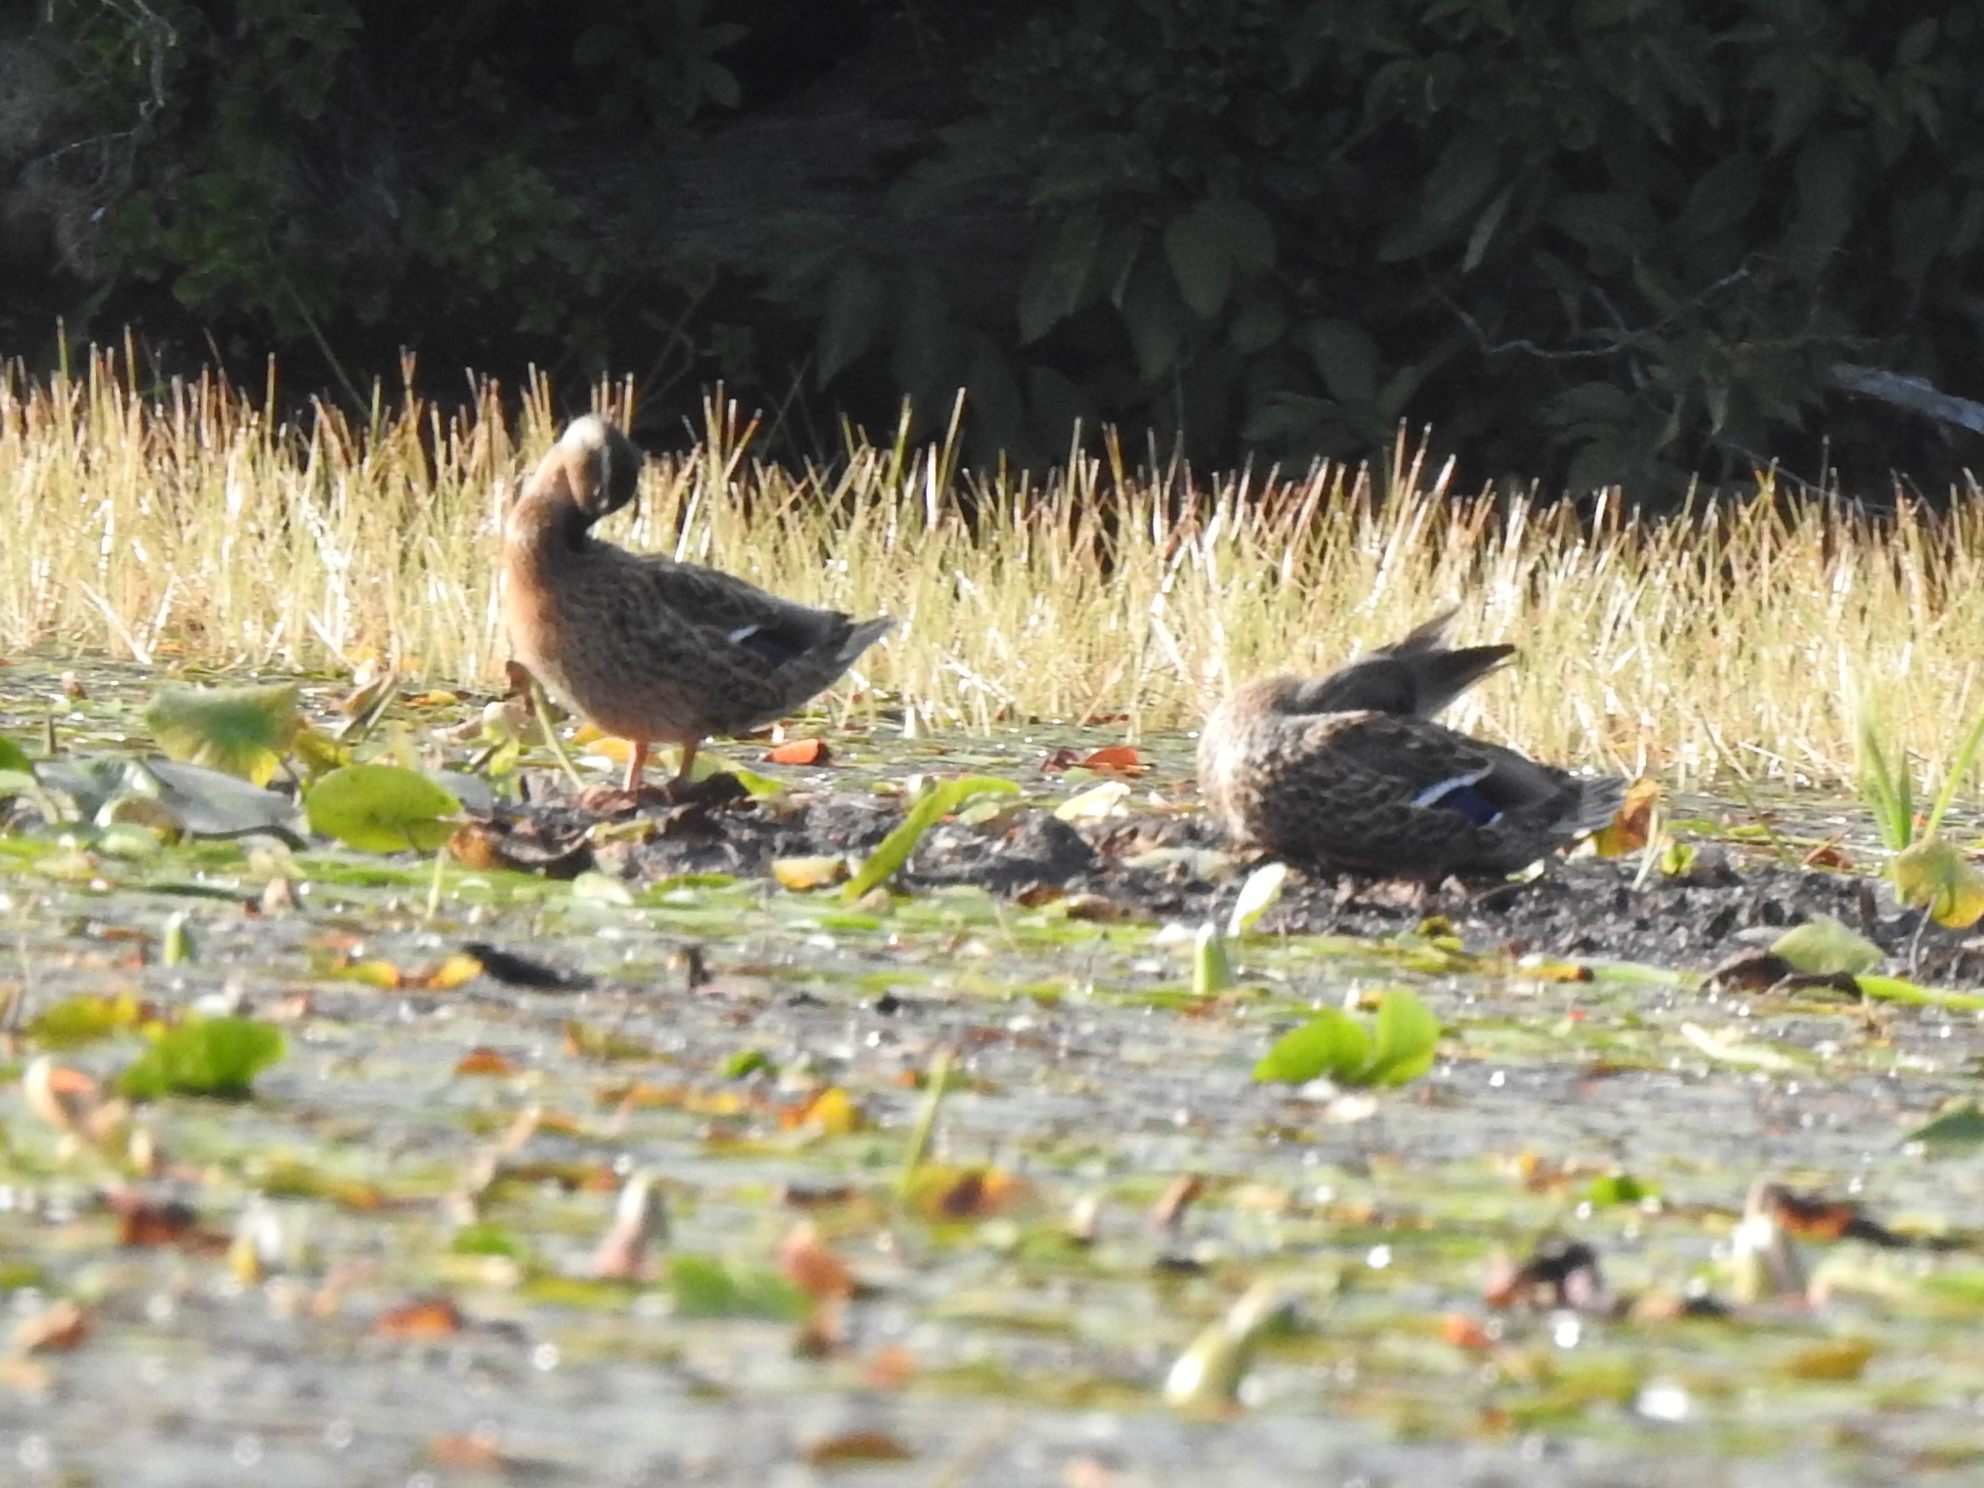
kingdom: Animalia
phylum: Chordata
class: Aves
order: Anseriformes
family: Anatidae
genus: Anas
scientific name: Anas platyrhynchos
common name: Mallard
